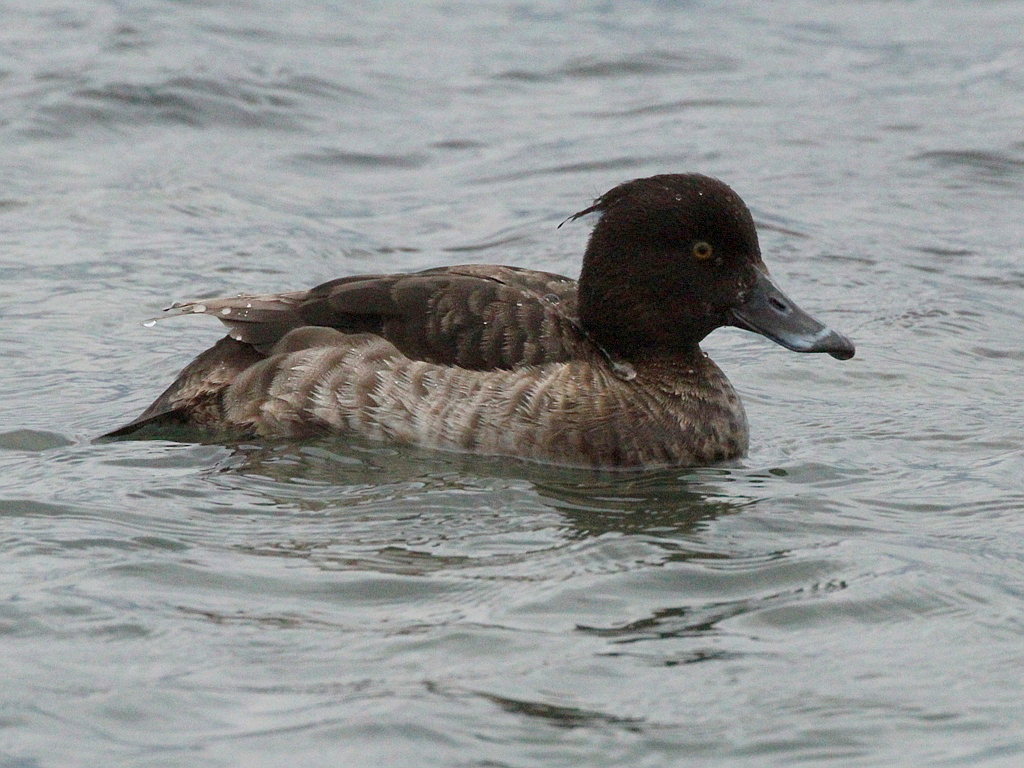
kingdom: Animalia
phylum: Chordata
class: Aves
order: Anseriformes
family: Anatidae
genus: Aythya
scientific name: Aythya fuligula
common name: Tufted duck
